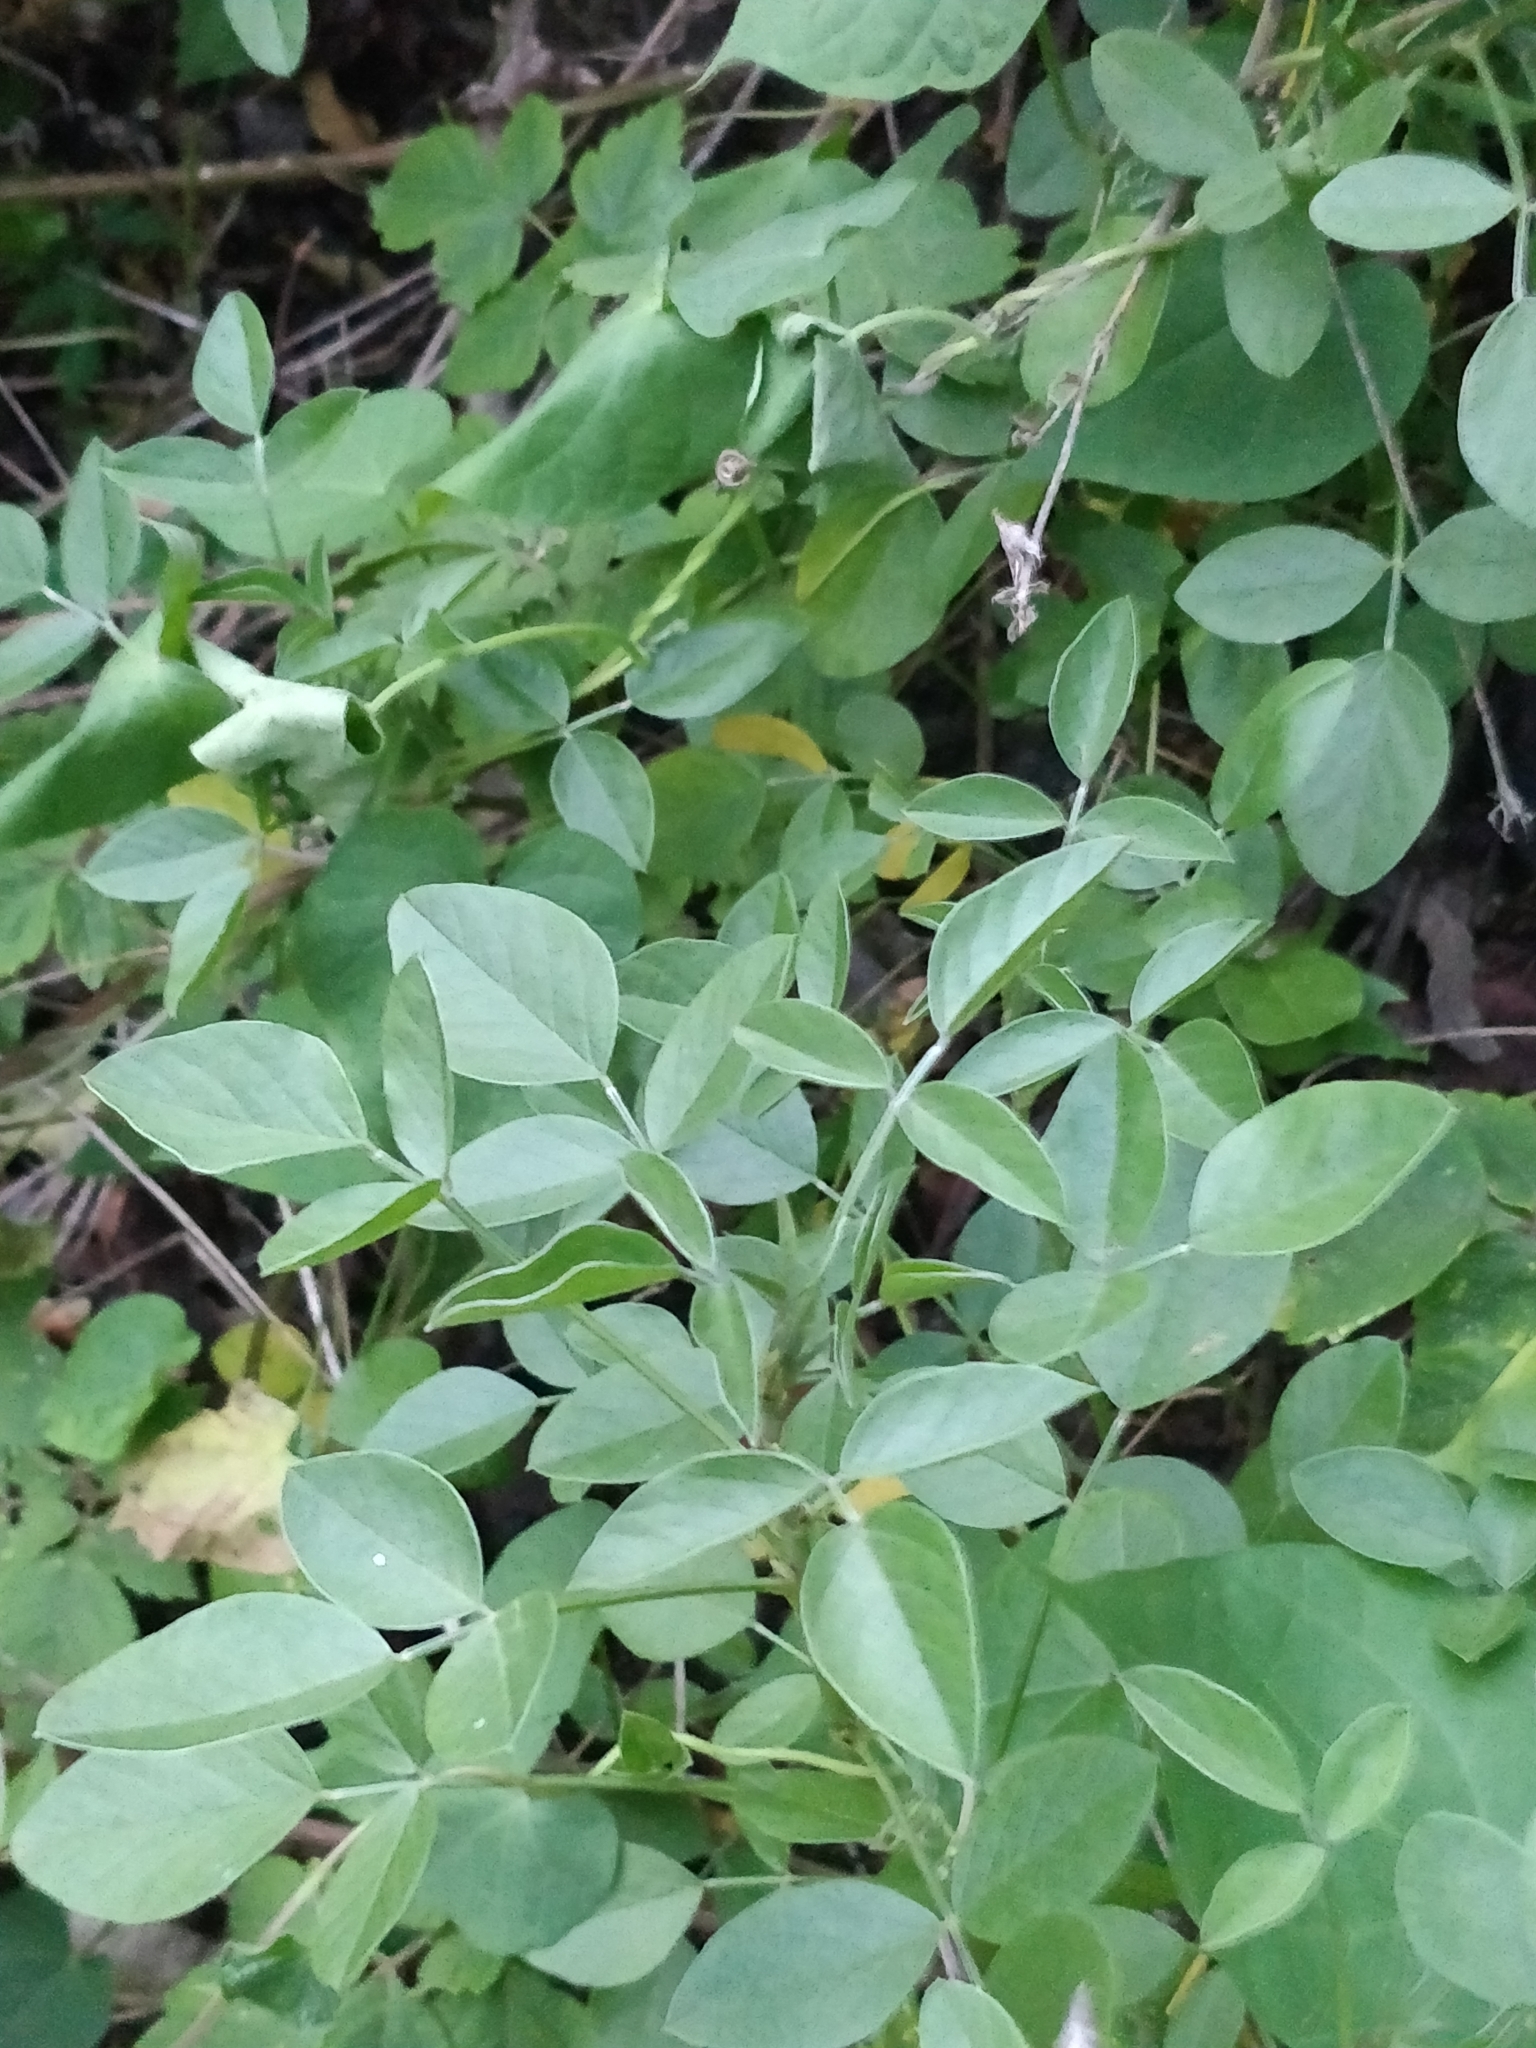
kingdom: Plantae
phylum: Tracheophyta
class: Magnoliopsida
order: Fabales
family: Fabaceae
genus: Bituminaria
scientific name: Bituminaria bituminosa
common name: Arabian pea
